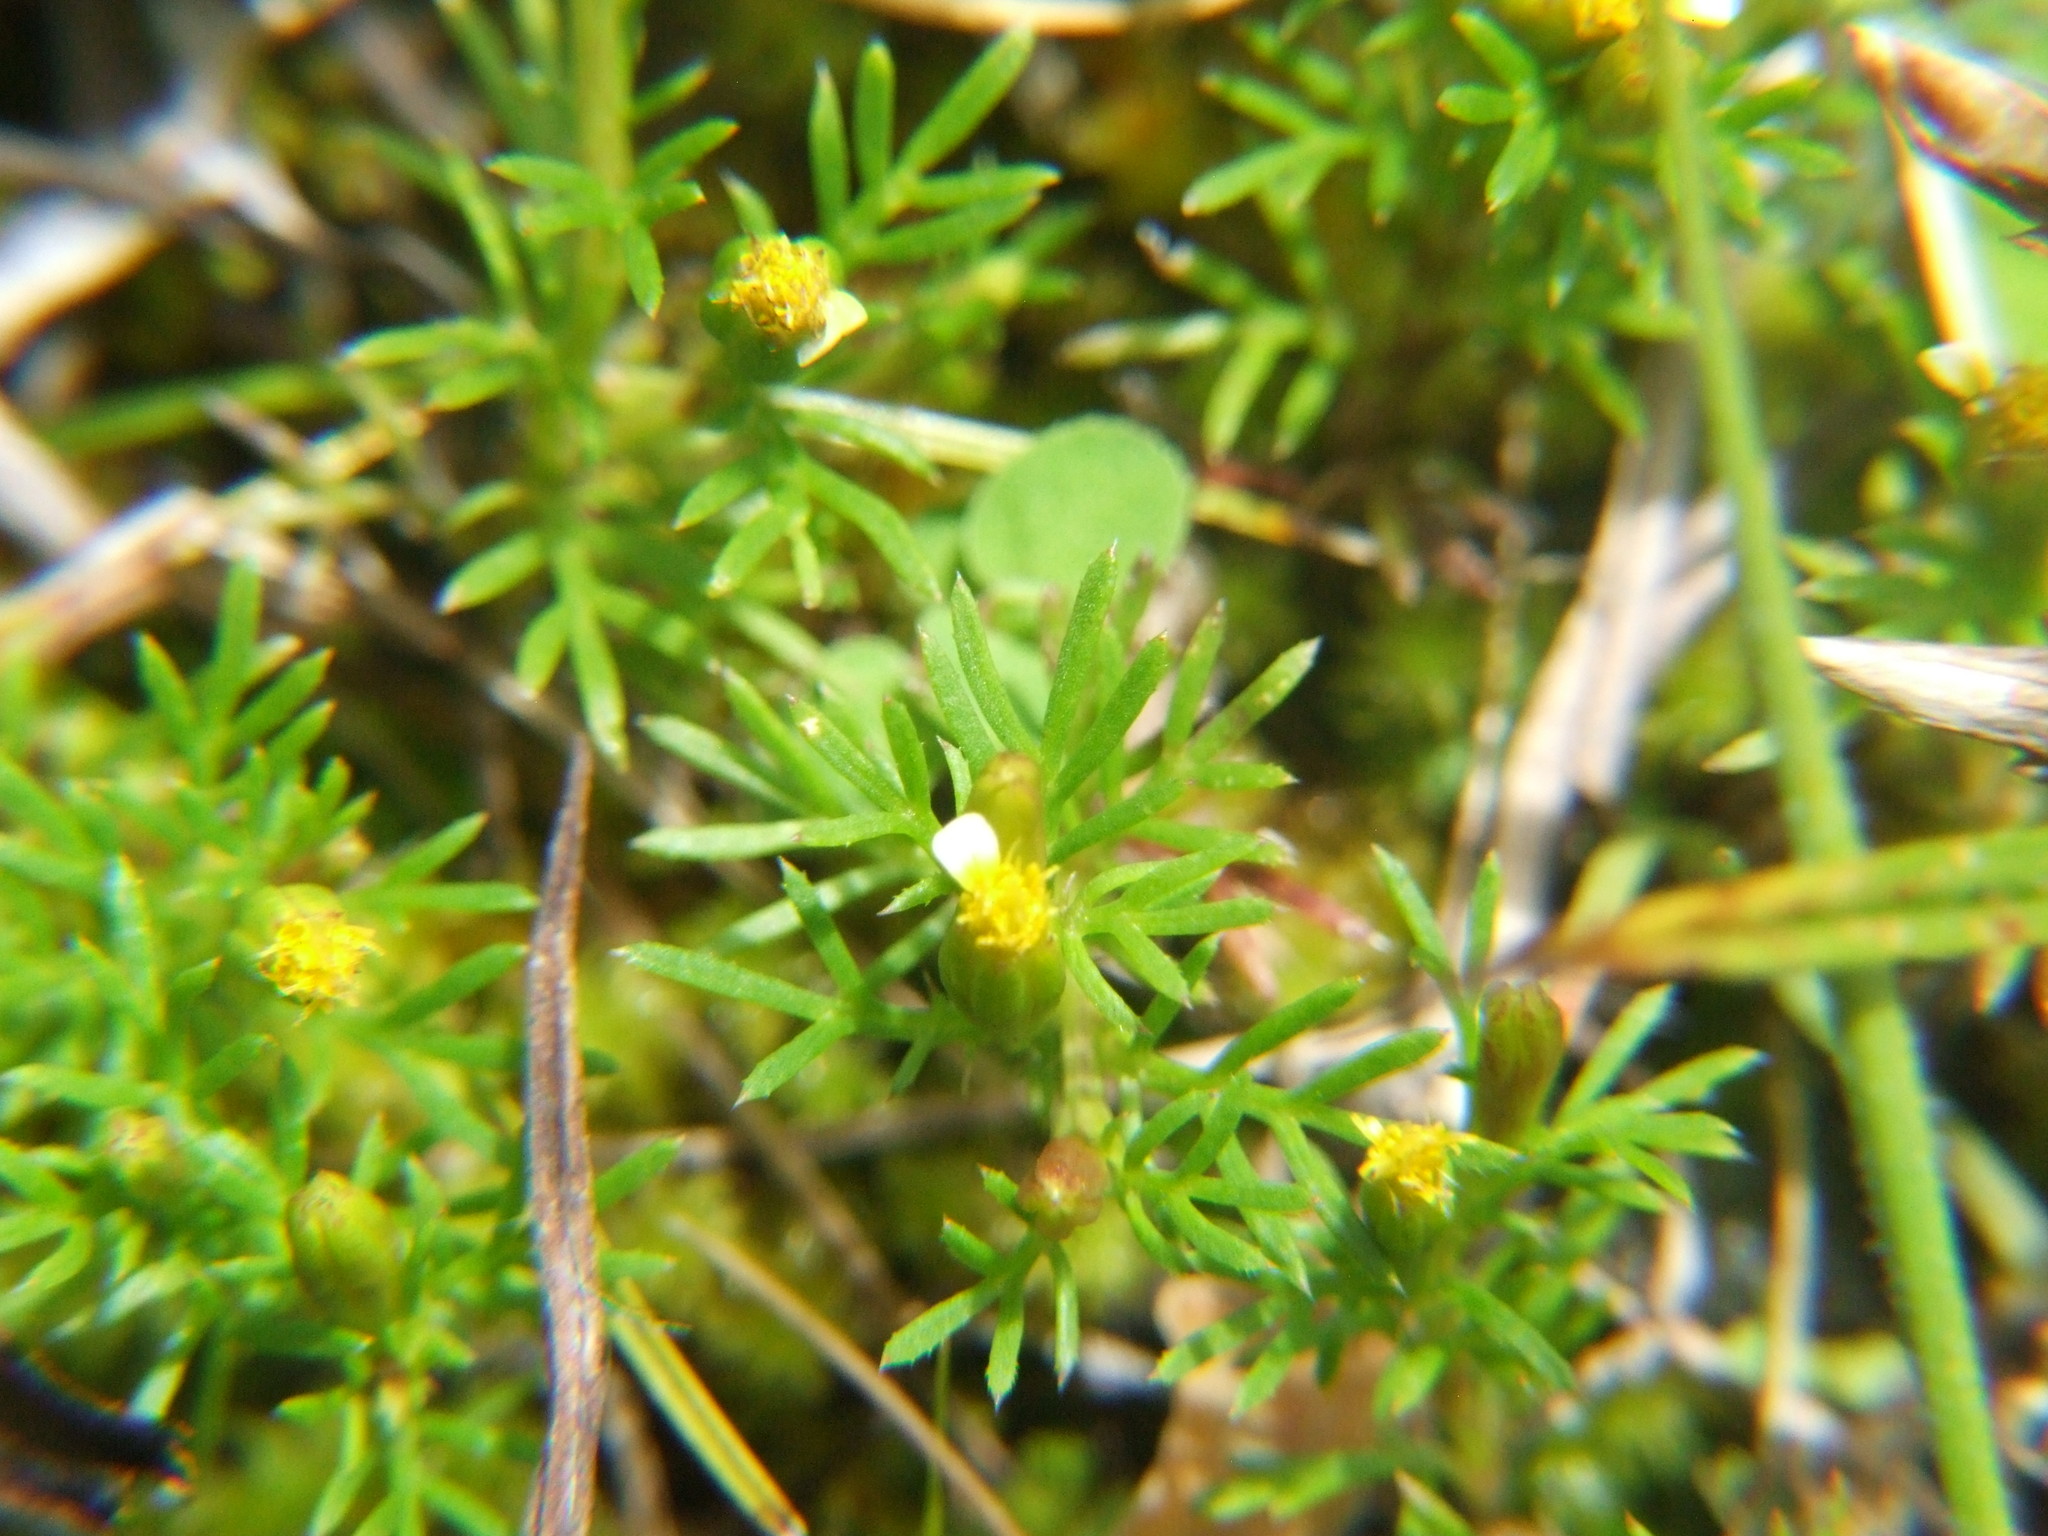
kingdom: Plantae
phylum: Tracheophyta
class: Magnoliopsida
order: Asterales
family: Asteraceae
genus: Tagetes
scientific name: Tagetes filifolia
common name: Lesser marigold
